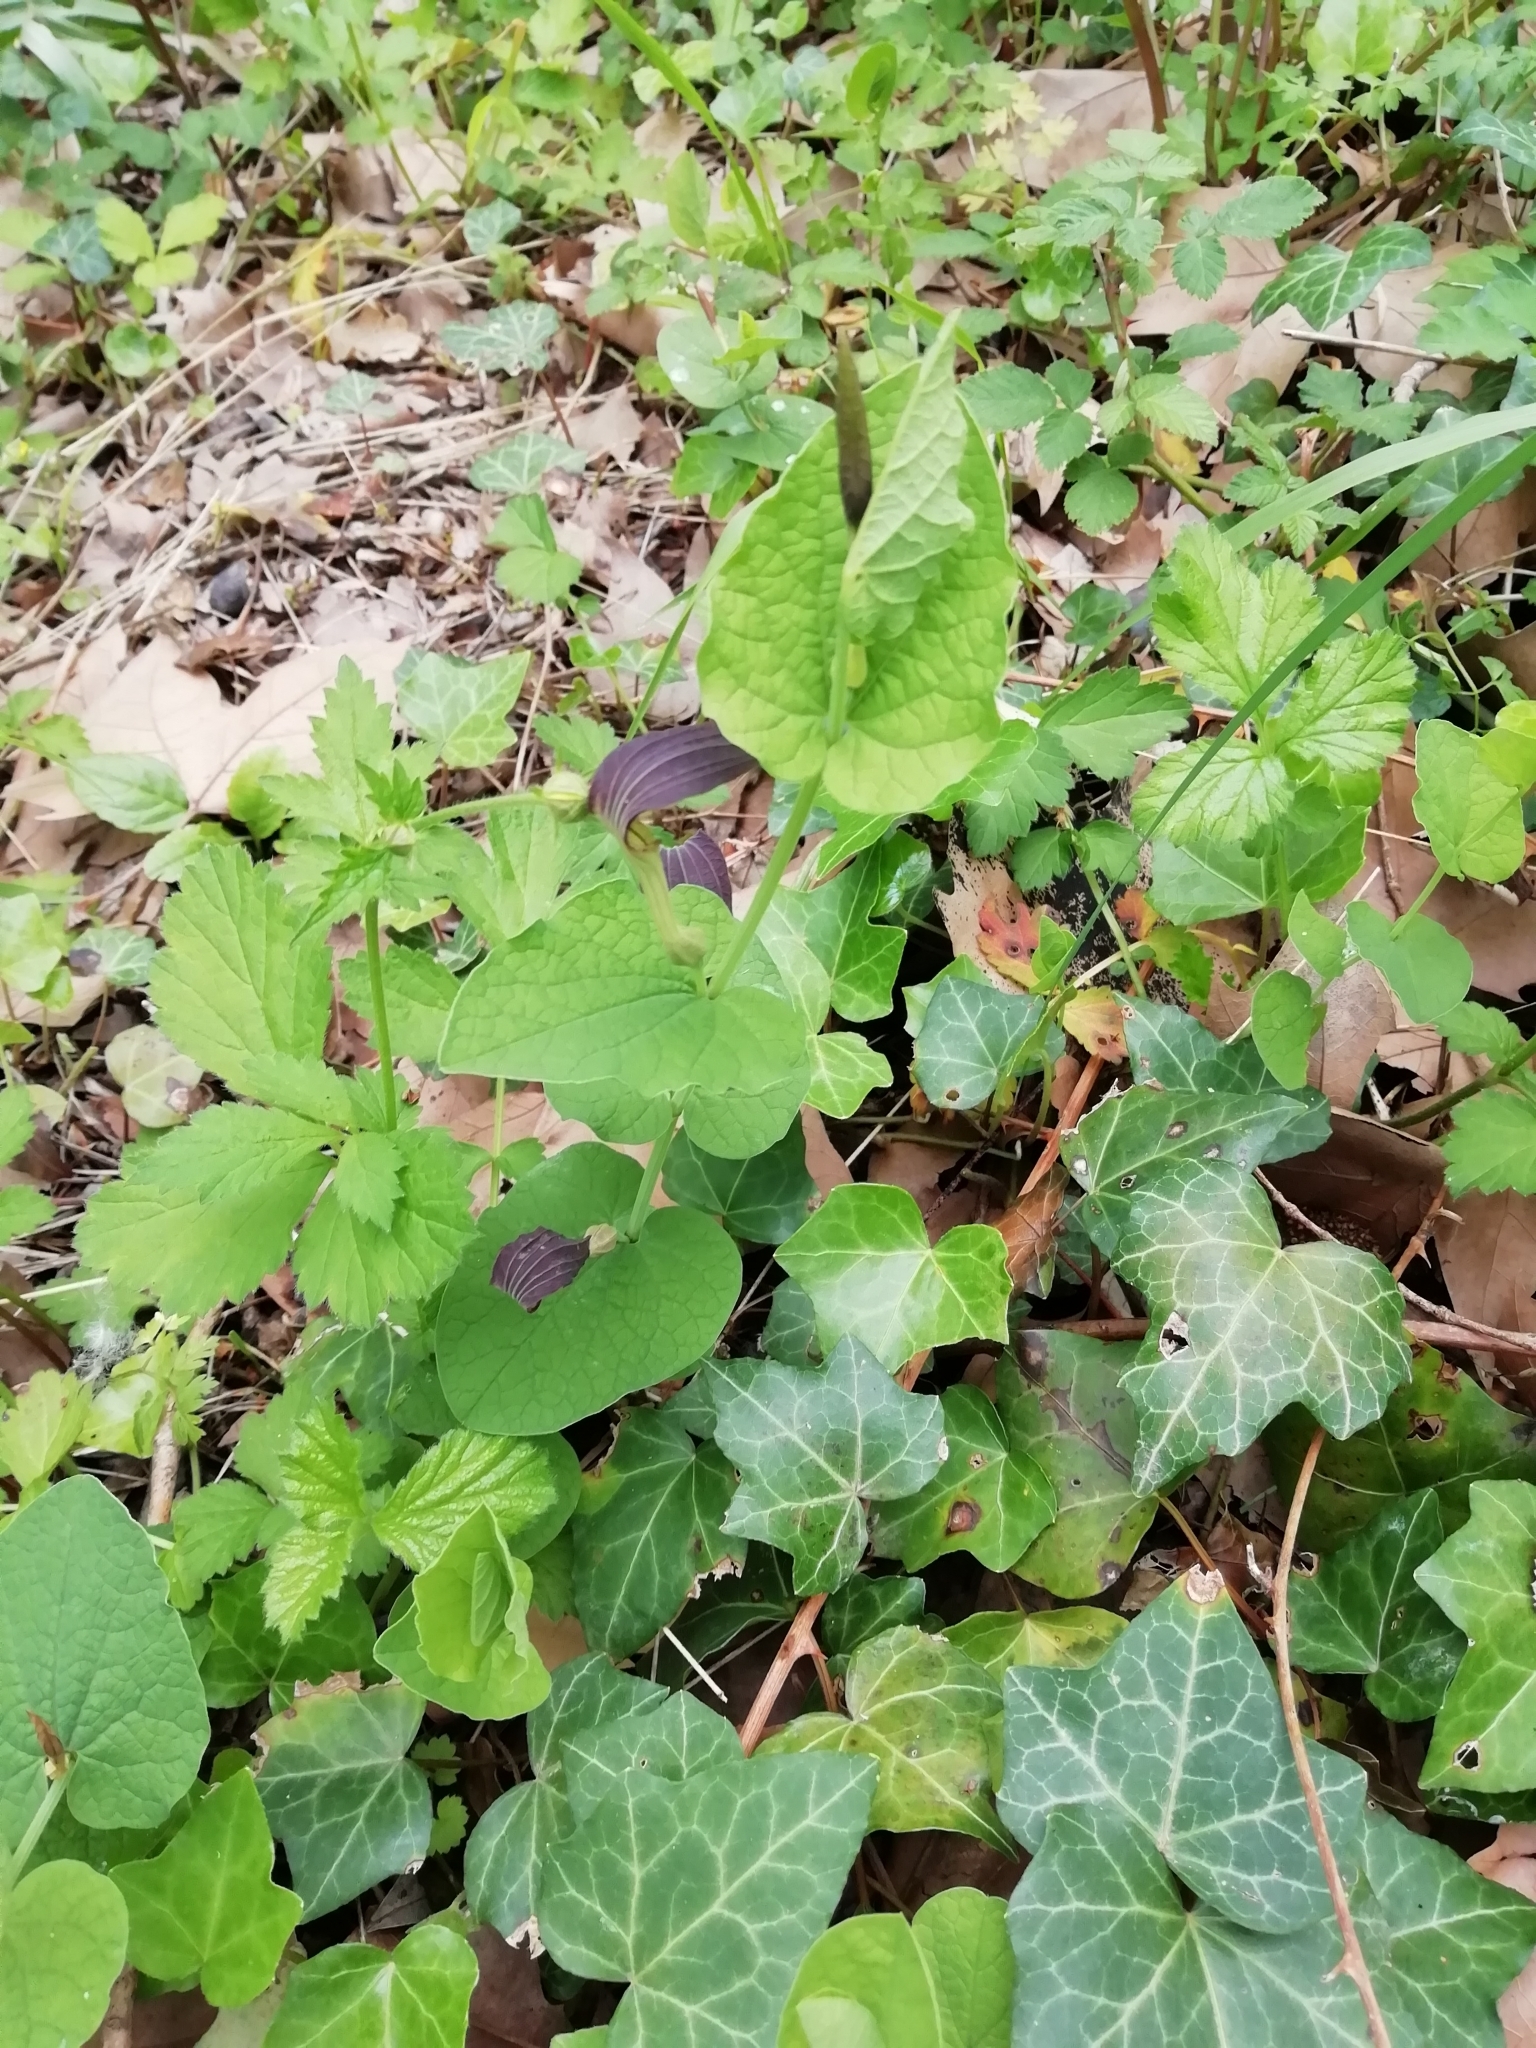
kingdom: Plantae
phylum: Tracheophyta
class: Magnoliopsida
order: Piperales
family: Aristolochiaceae
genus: Aristolochia
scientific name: Aristolochia rotunda
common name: Smearwort
